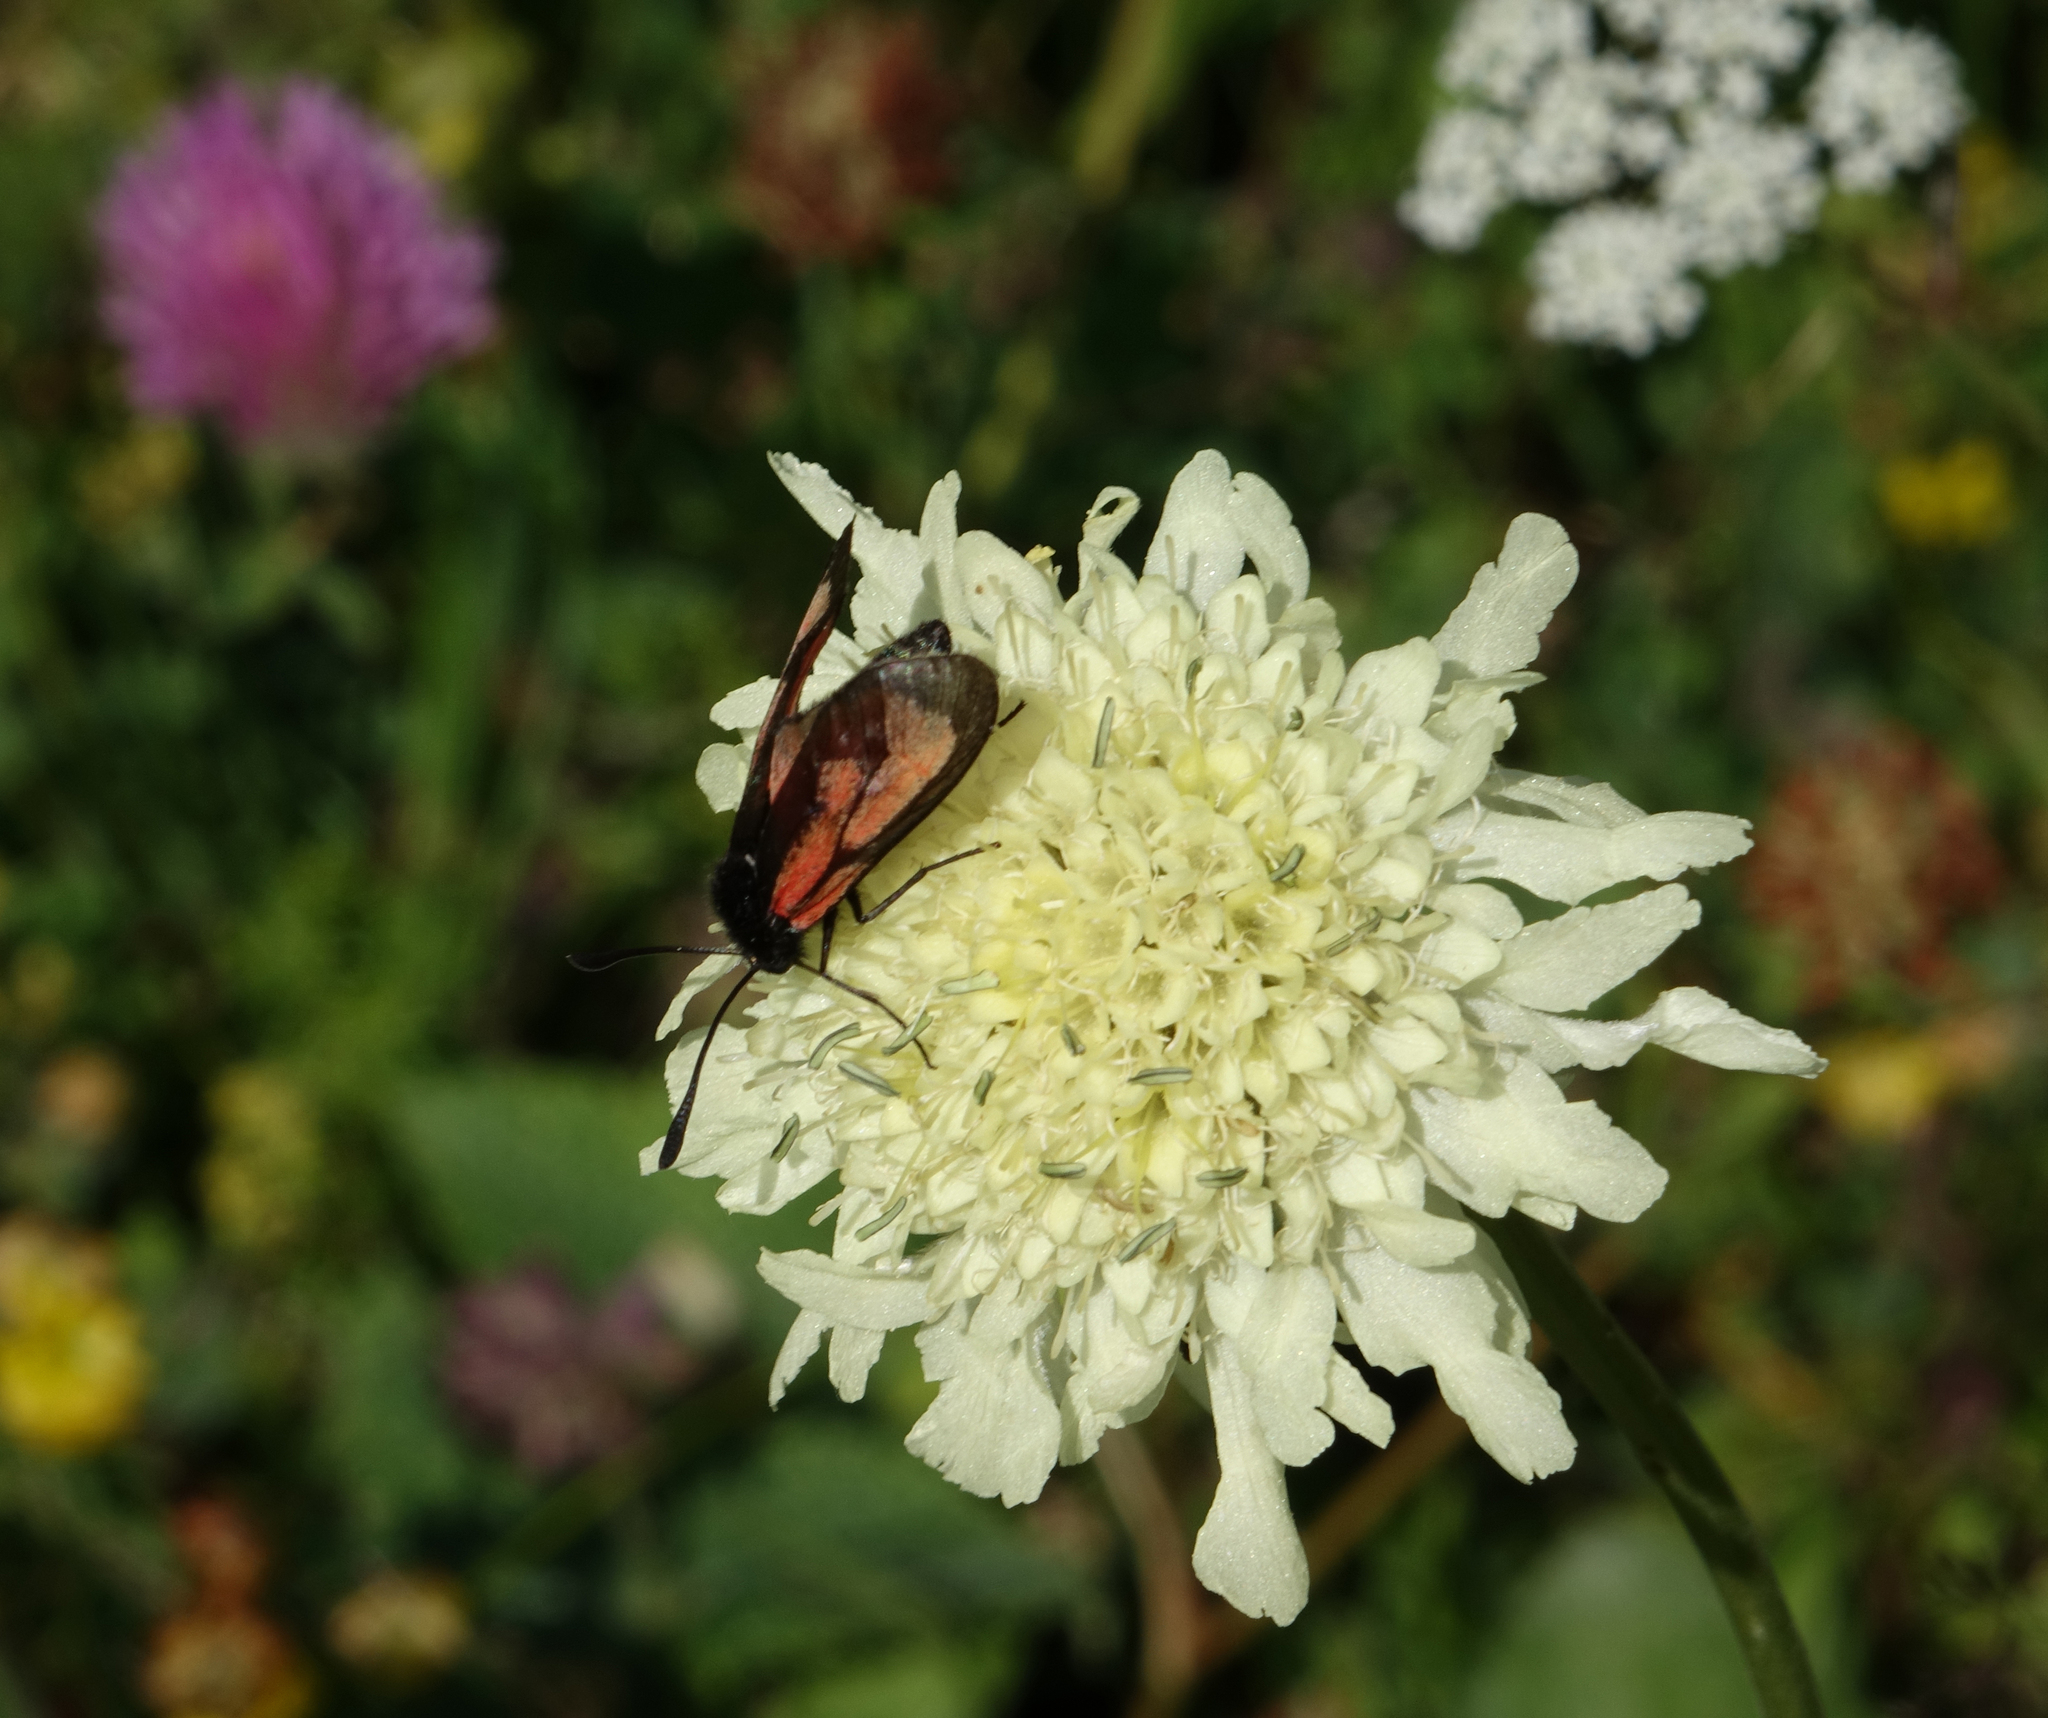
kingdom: Animalia
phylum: Arthropoda
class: Insecta
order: Lepidoptera
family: Zygaenidae
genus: Zygaena
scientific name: Zygaena purpuralis
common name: Transparent burnet
